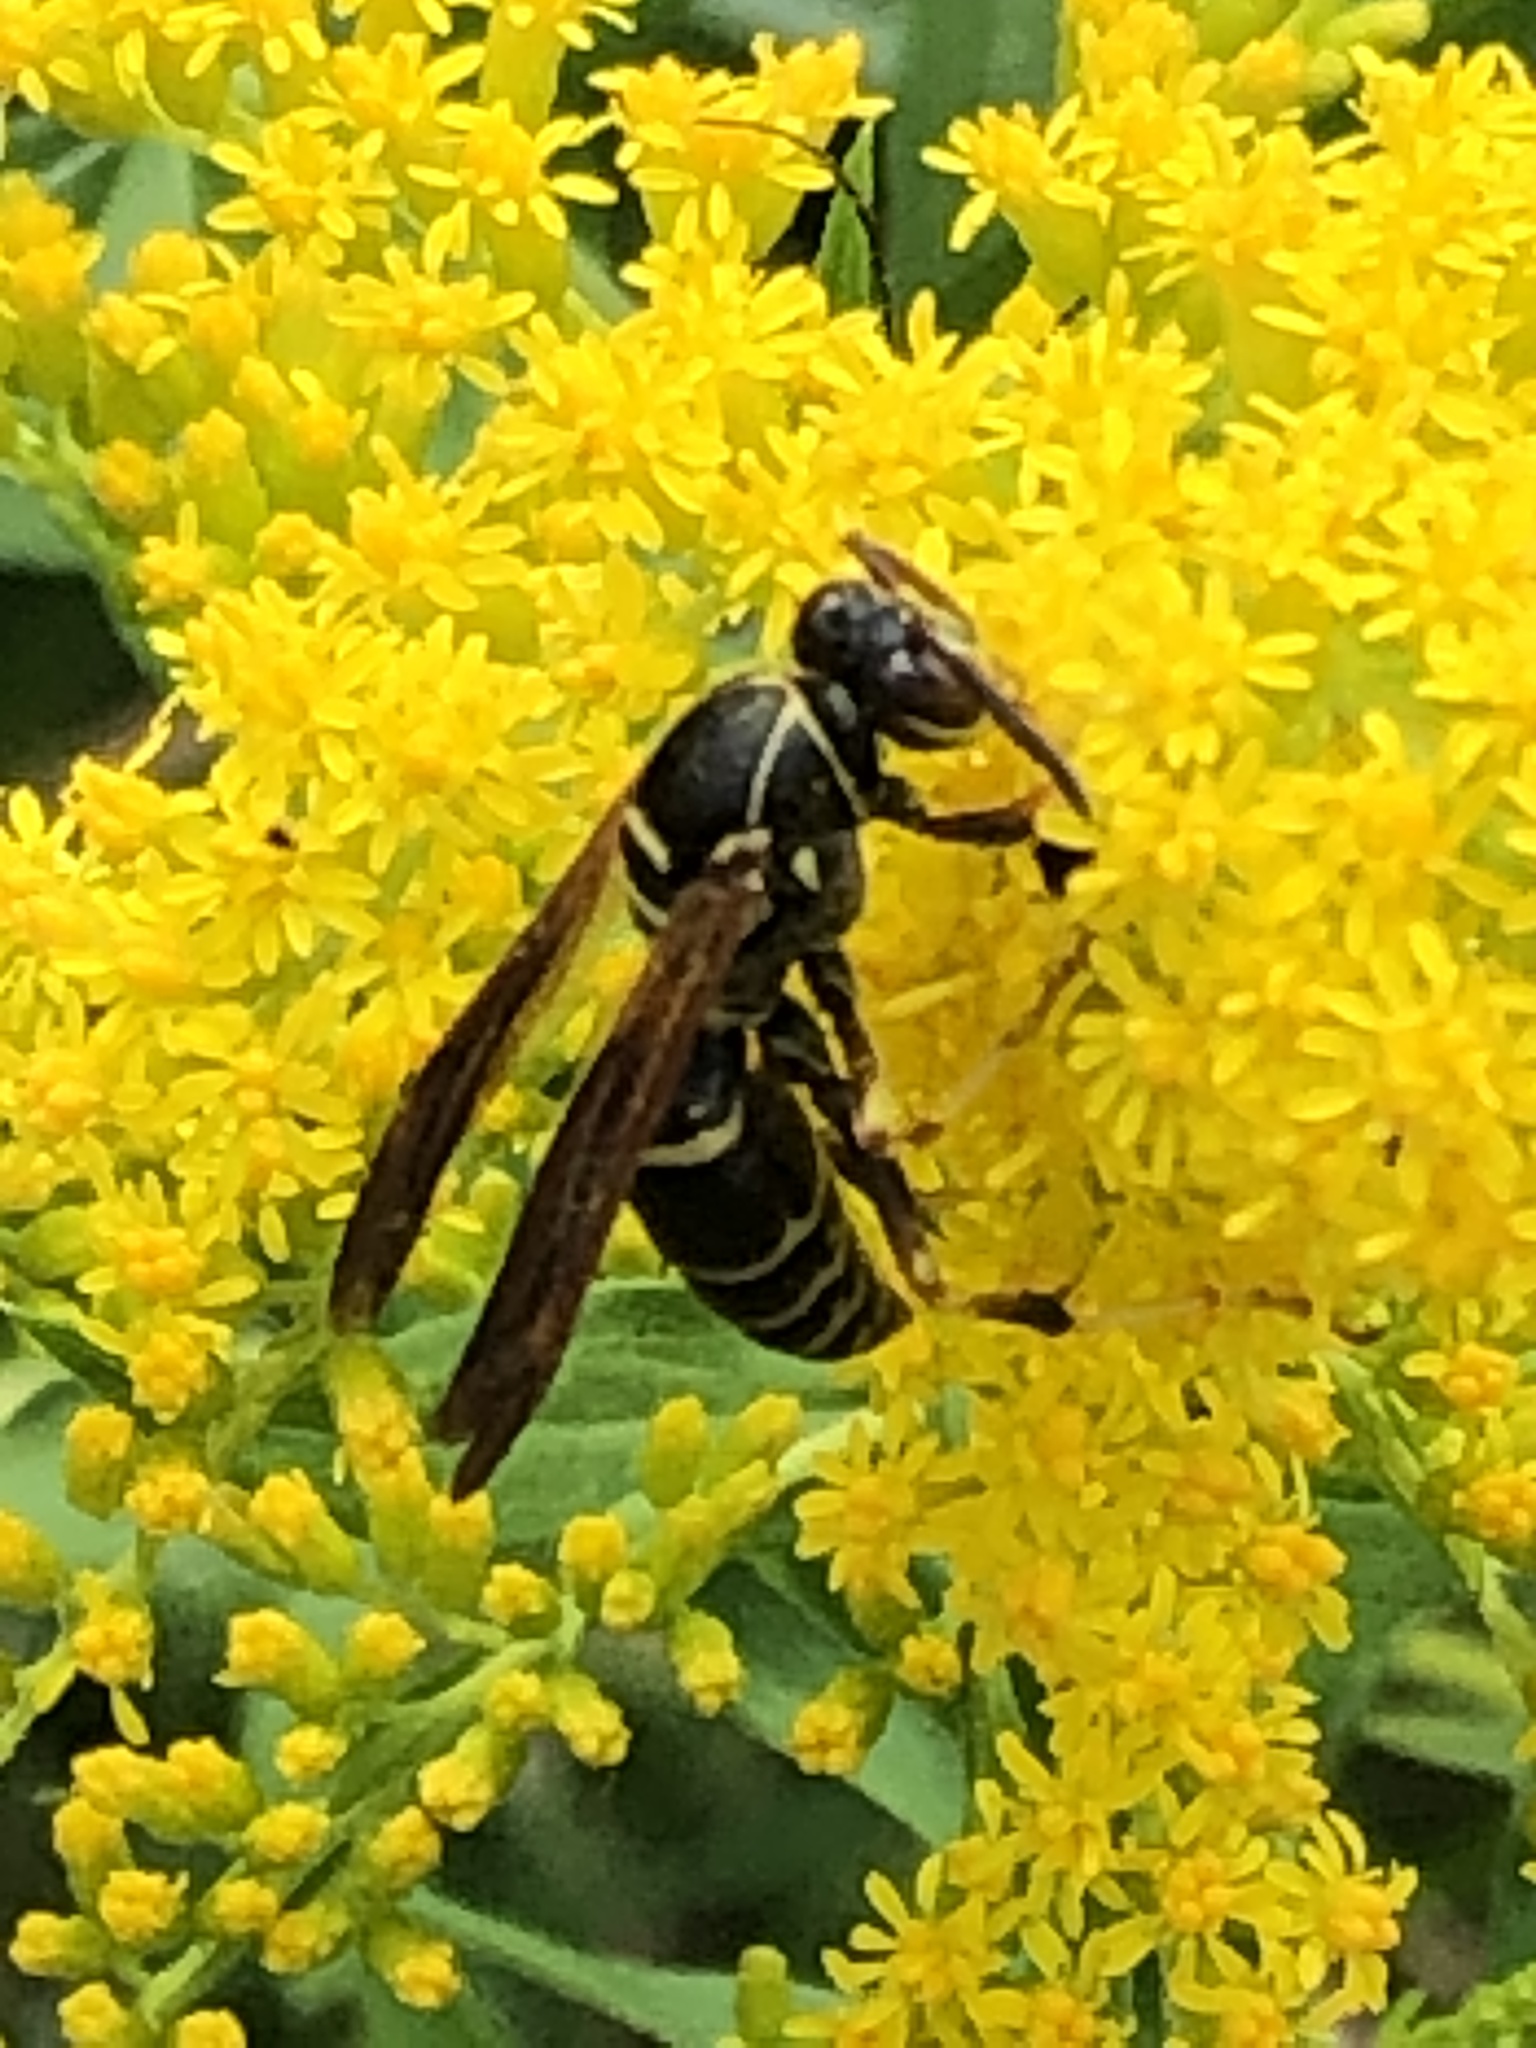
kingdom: Animalia
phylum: Arthropoda
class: Insecta
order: Hymenoptera
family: Eumenidae
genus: Polistes
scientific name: Polistes fuscatus
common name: Dark paper wasp
